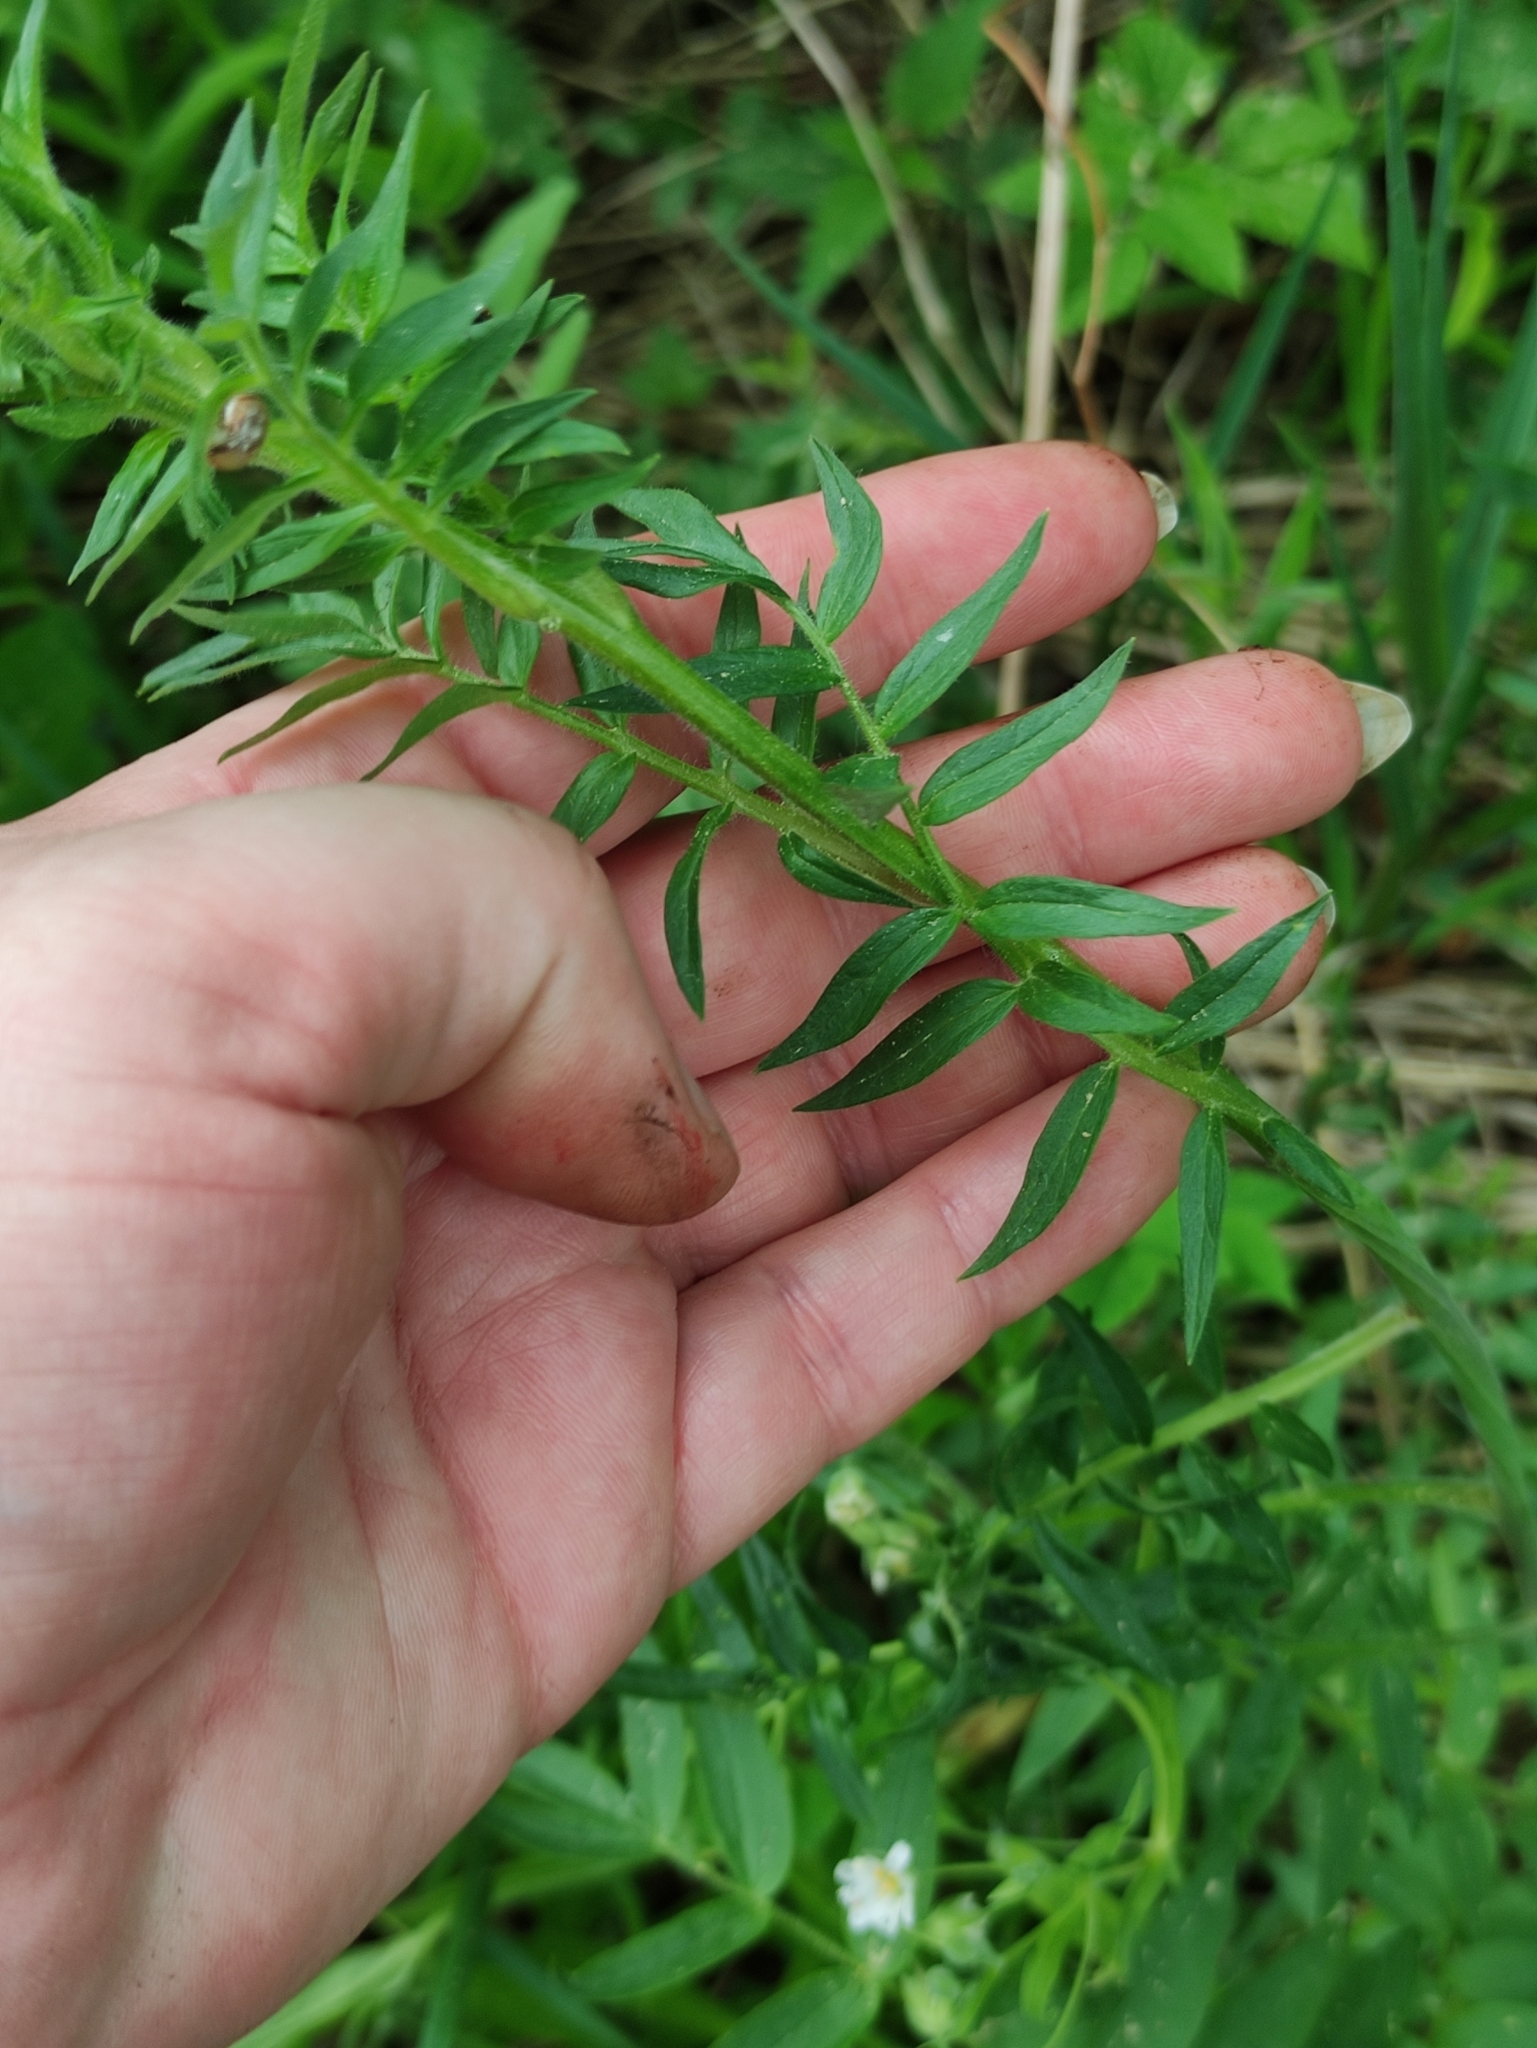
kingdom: Plantae
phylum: Tracheophyta
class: Magnoliopsida
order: Dipsacales
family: Caprifoliaceae
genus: Valeriana
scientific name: Valeriana officinalis
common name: Common valerian
